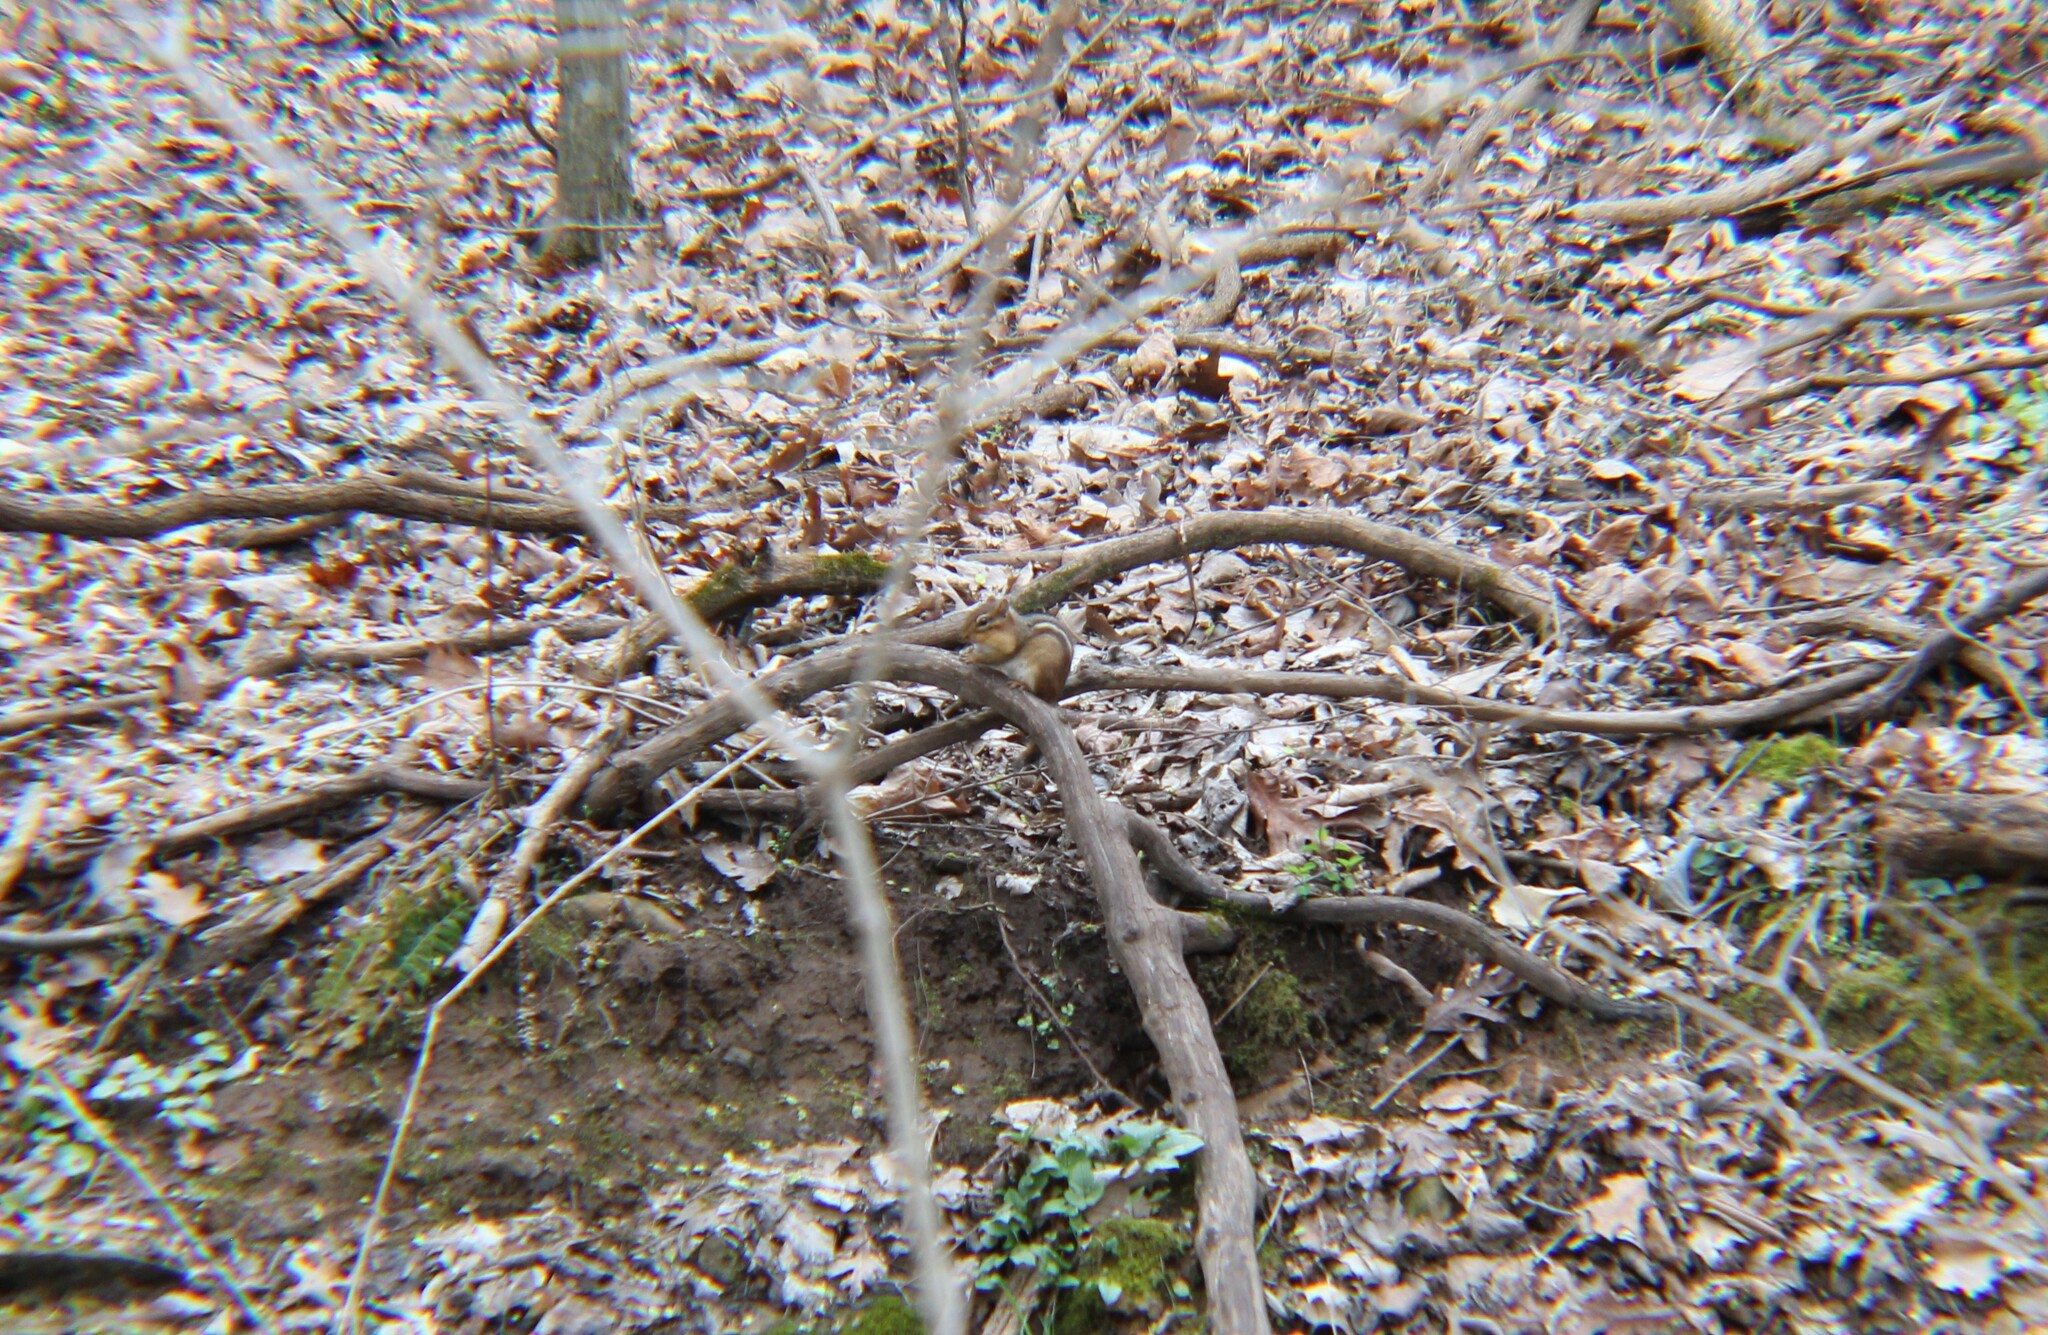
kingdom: Animalia
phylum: Chordata
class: Mammalia
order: Rodentia
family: Sciuridae
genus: Tamias
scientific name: Tamias striatus
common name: Eastern chipmunk
